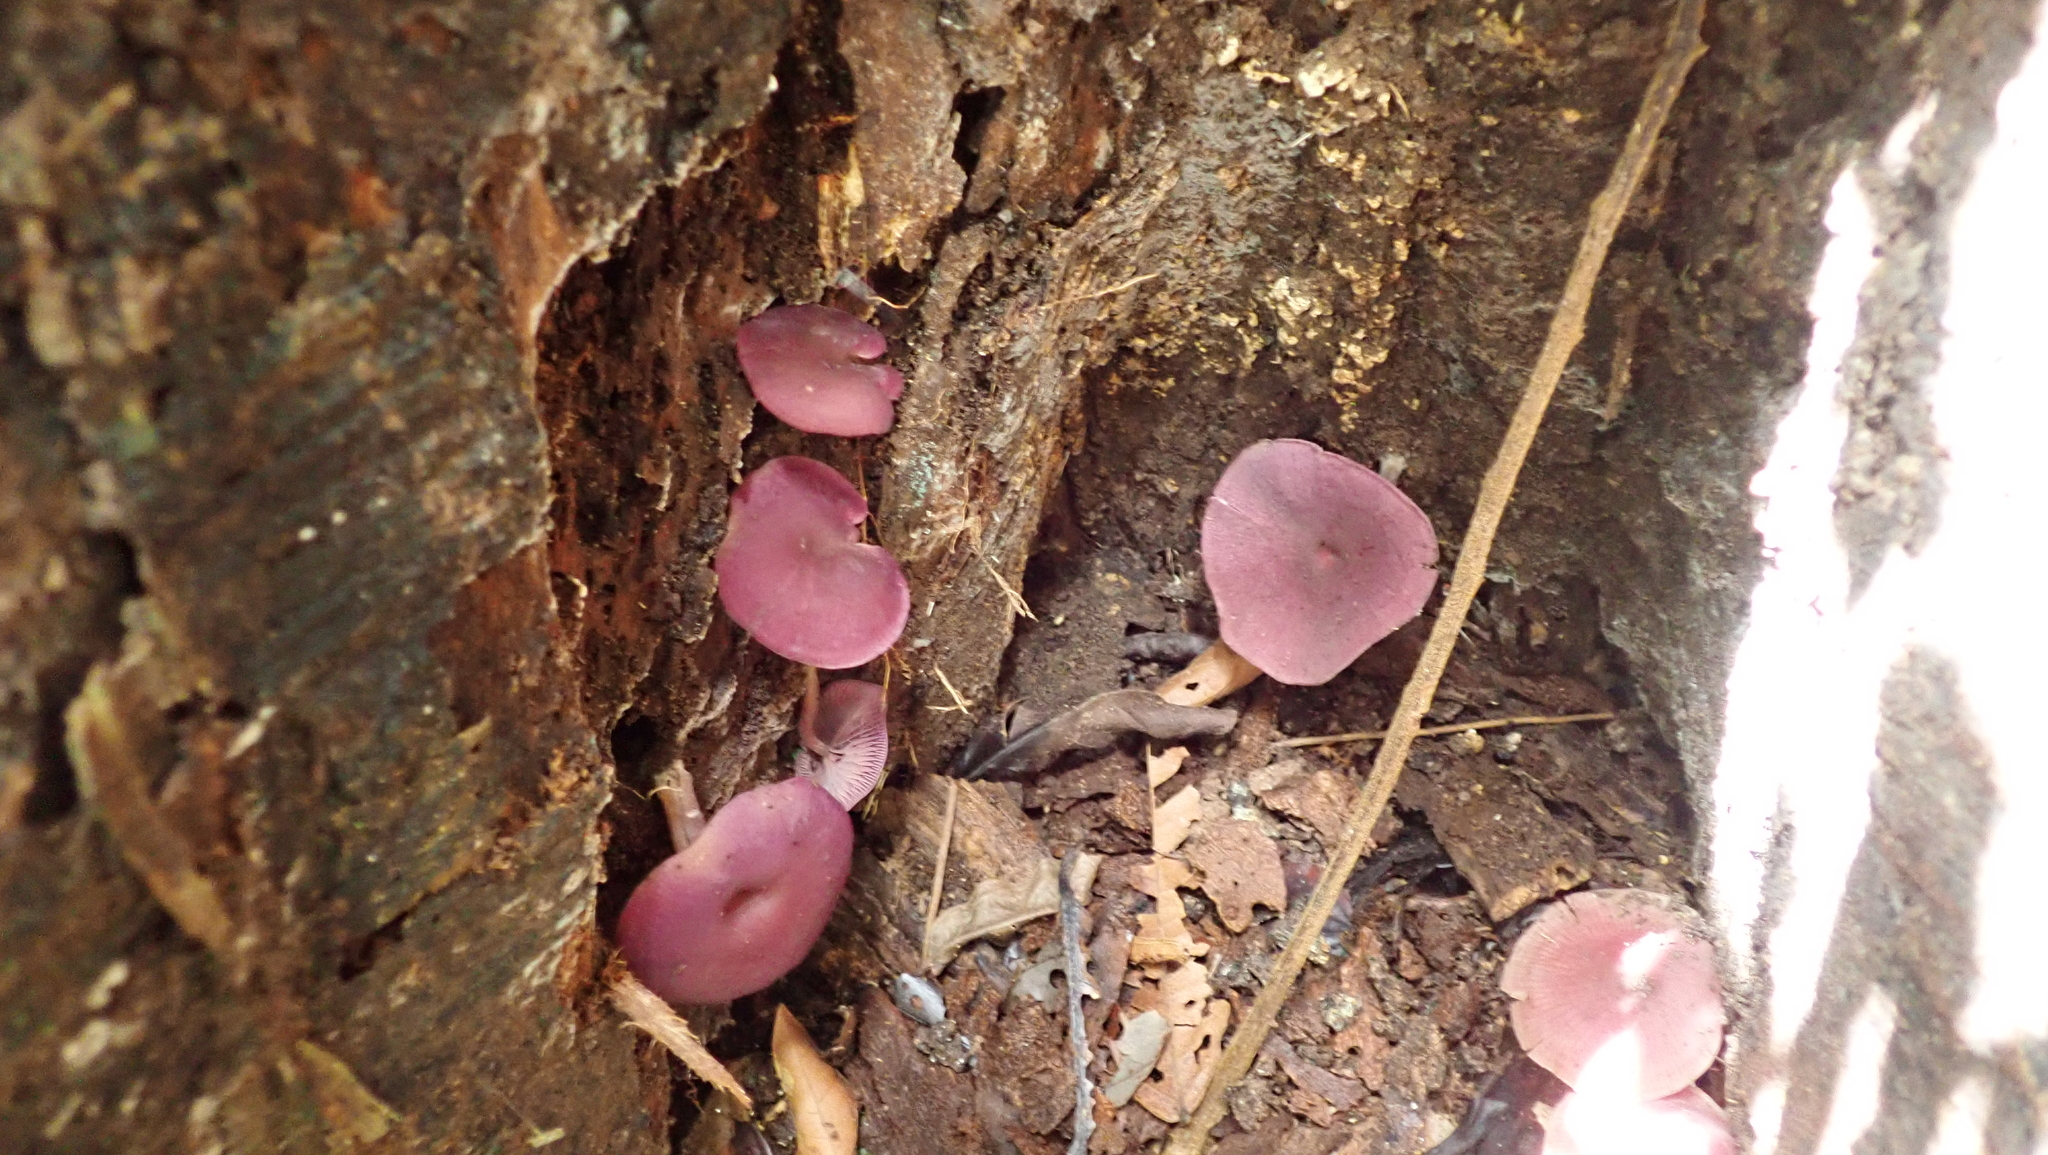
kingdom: Fungi
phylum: Basidiomycota
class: Agaricomycetes
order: Agaricales
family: Callistosporiaceae
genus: Callistosporium
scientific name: Callistosporium terrigenum
